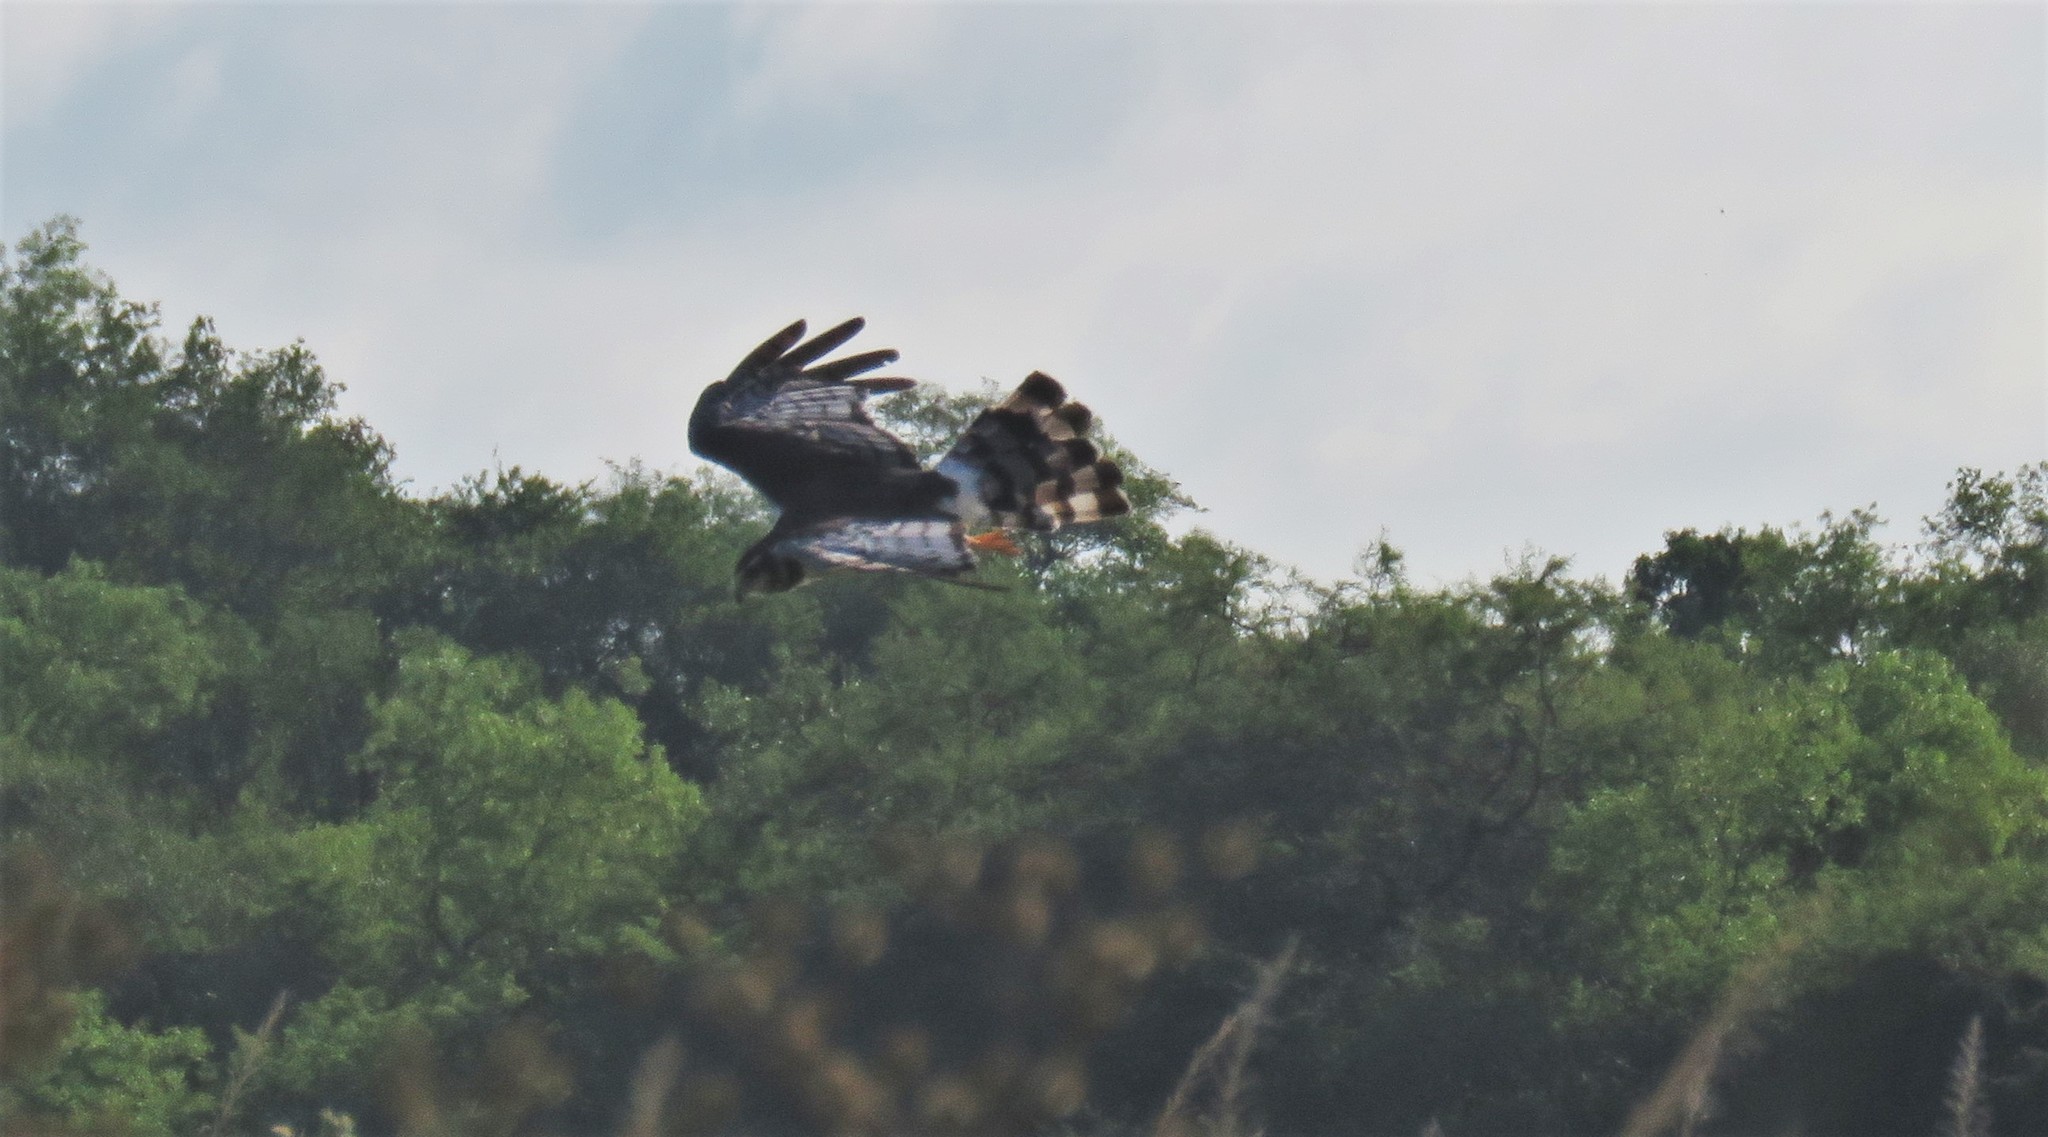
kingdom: Animalia
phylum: Chordata
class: Aves
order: Accipitriformes
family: Accipitridae
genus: Circus
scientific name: Circus buffoni
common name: Long-winged harrier
